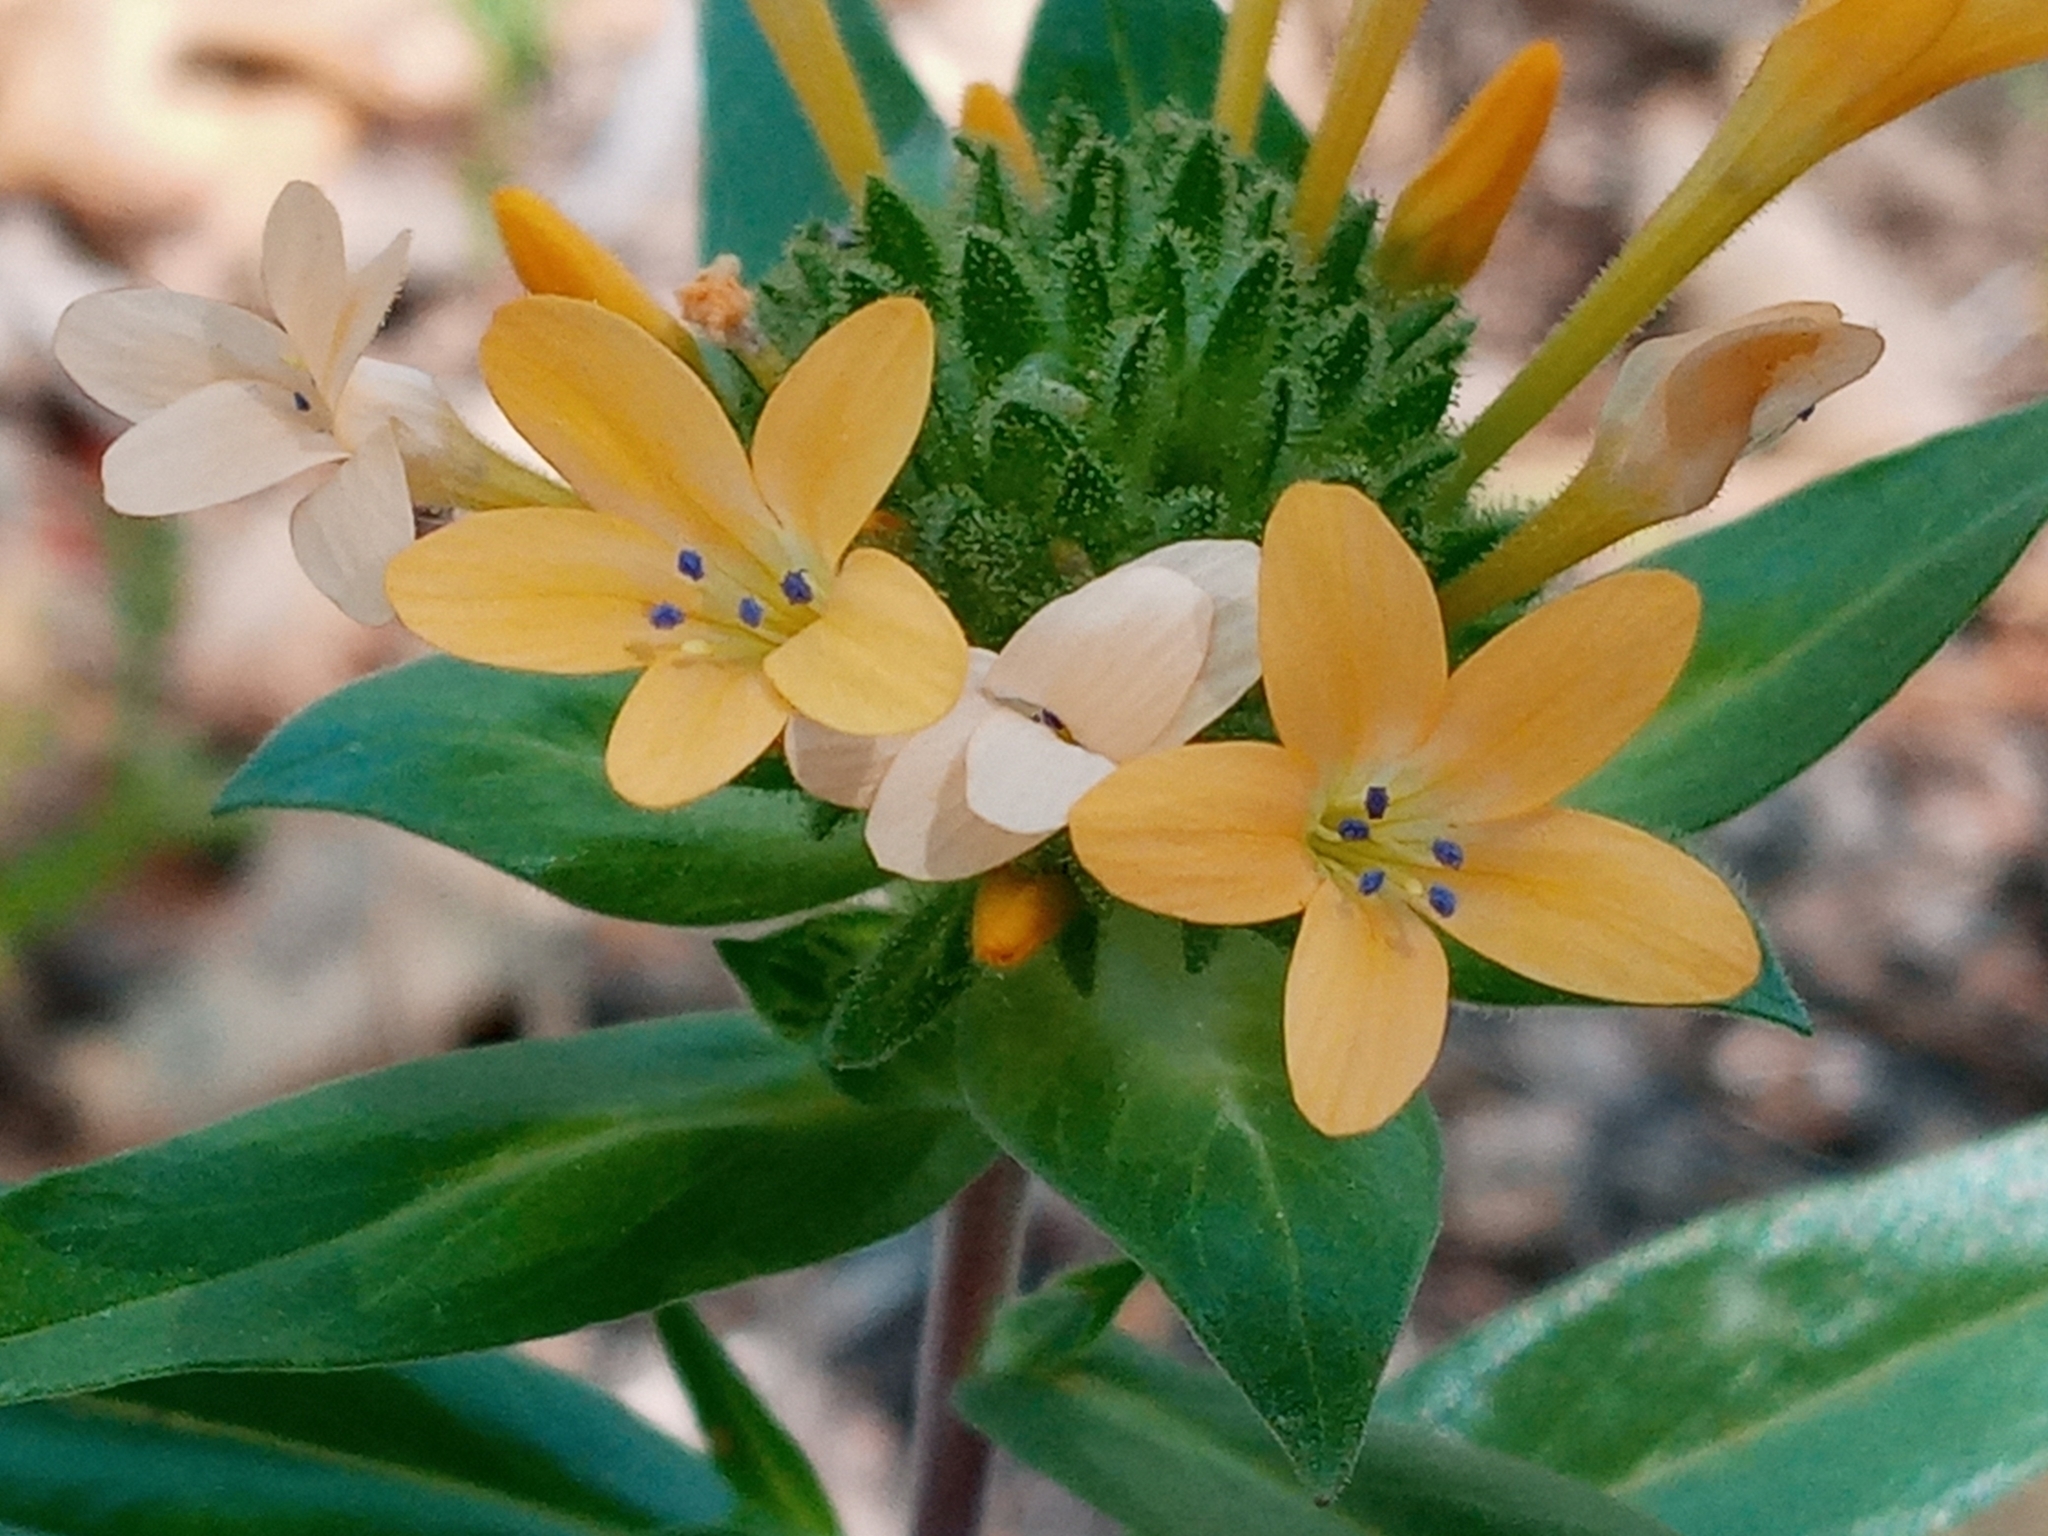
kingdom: Plantae
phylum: Tracheophyta
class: Magnoliopsida
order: Ericales
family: Polemoniaceae
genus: Collomia
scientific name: Collomia grandiflora
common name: California strawflower
